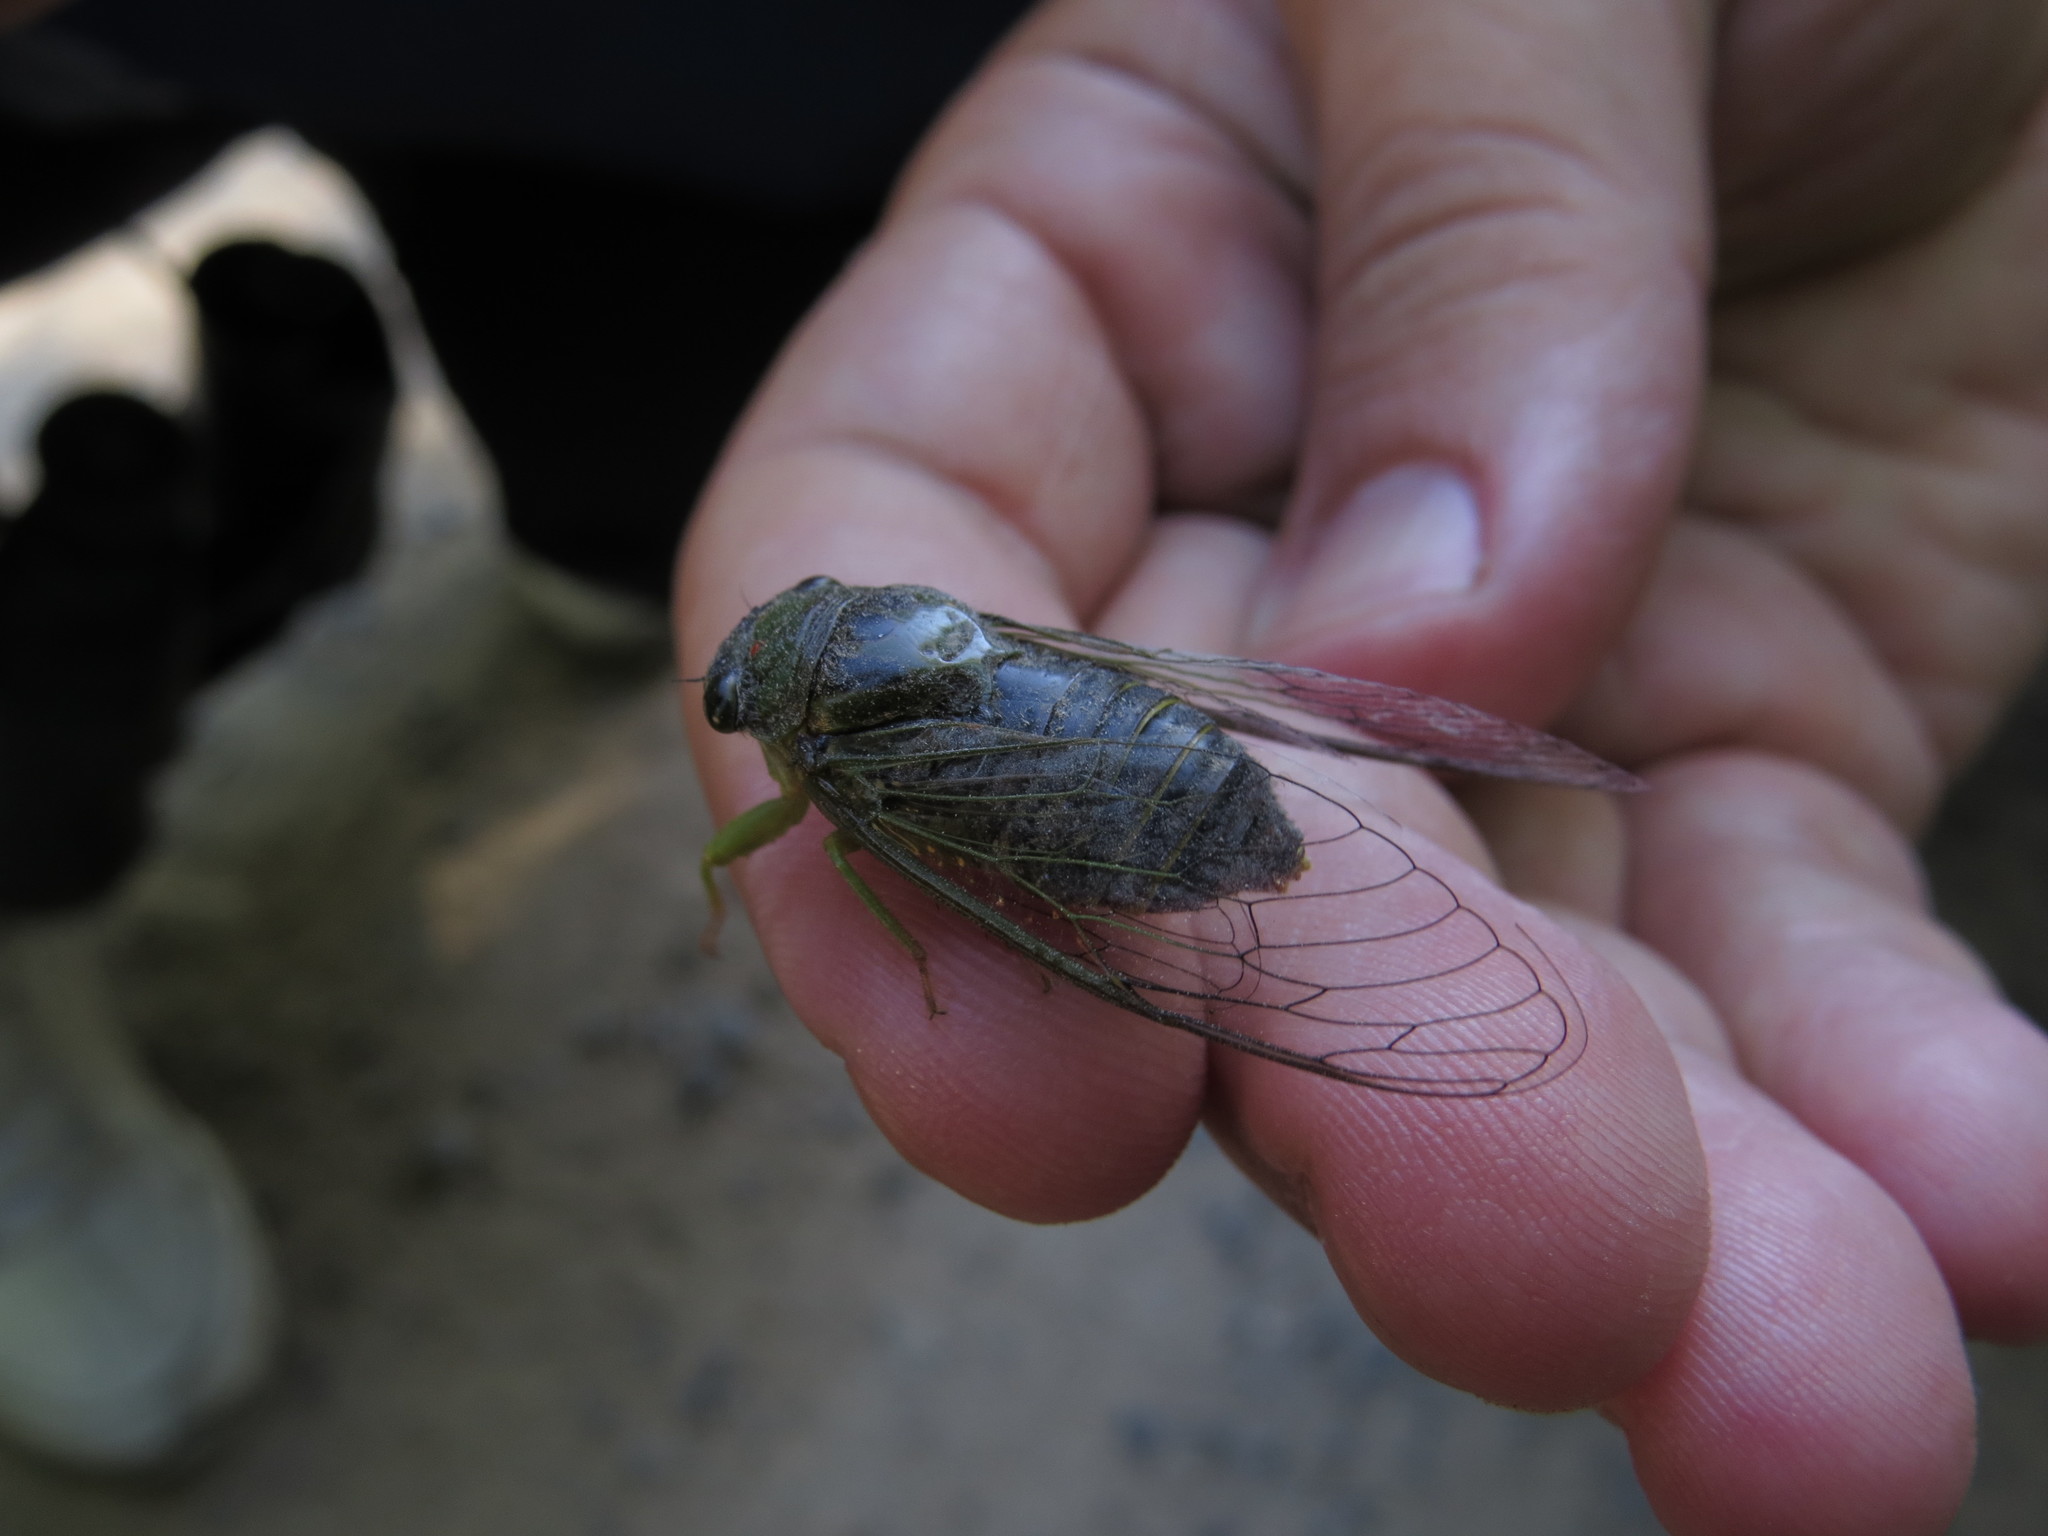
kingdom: Animalia
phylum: Arthropoda
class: Insecta
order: Hemiptera
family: Cicadidae
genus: Acanthoventris
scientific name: Acanthoventris drewseni
